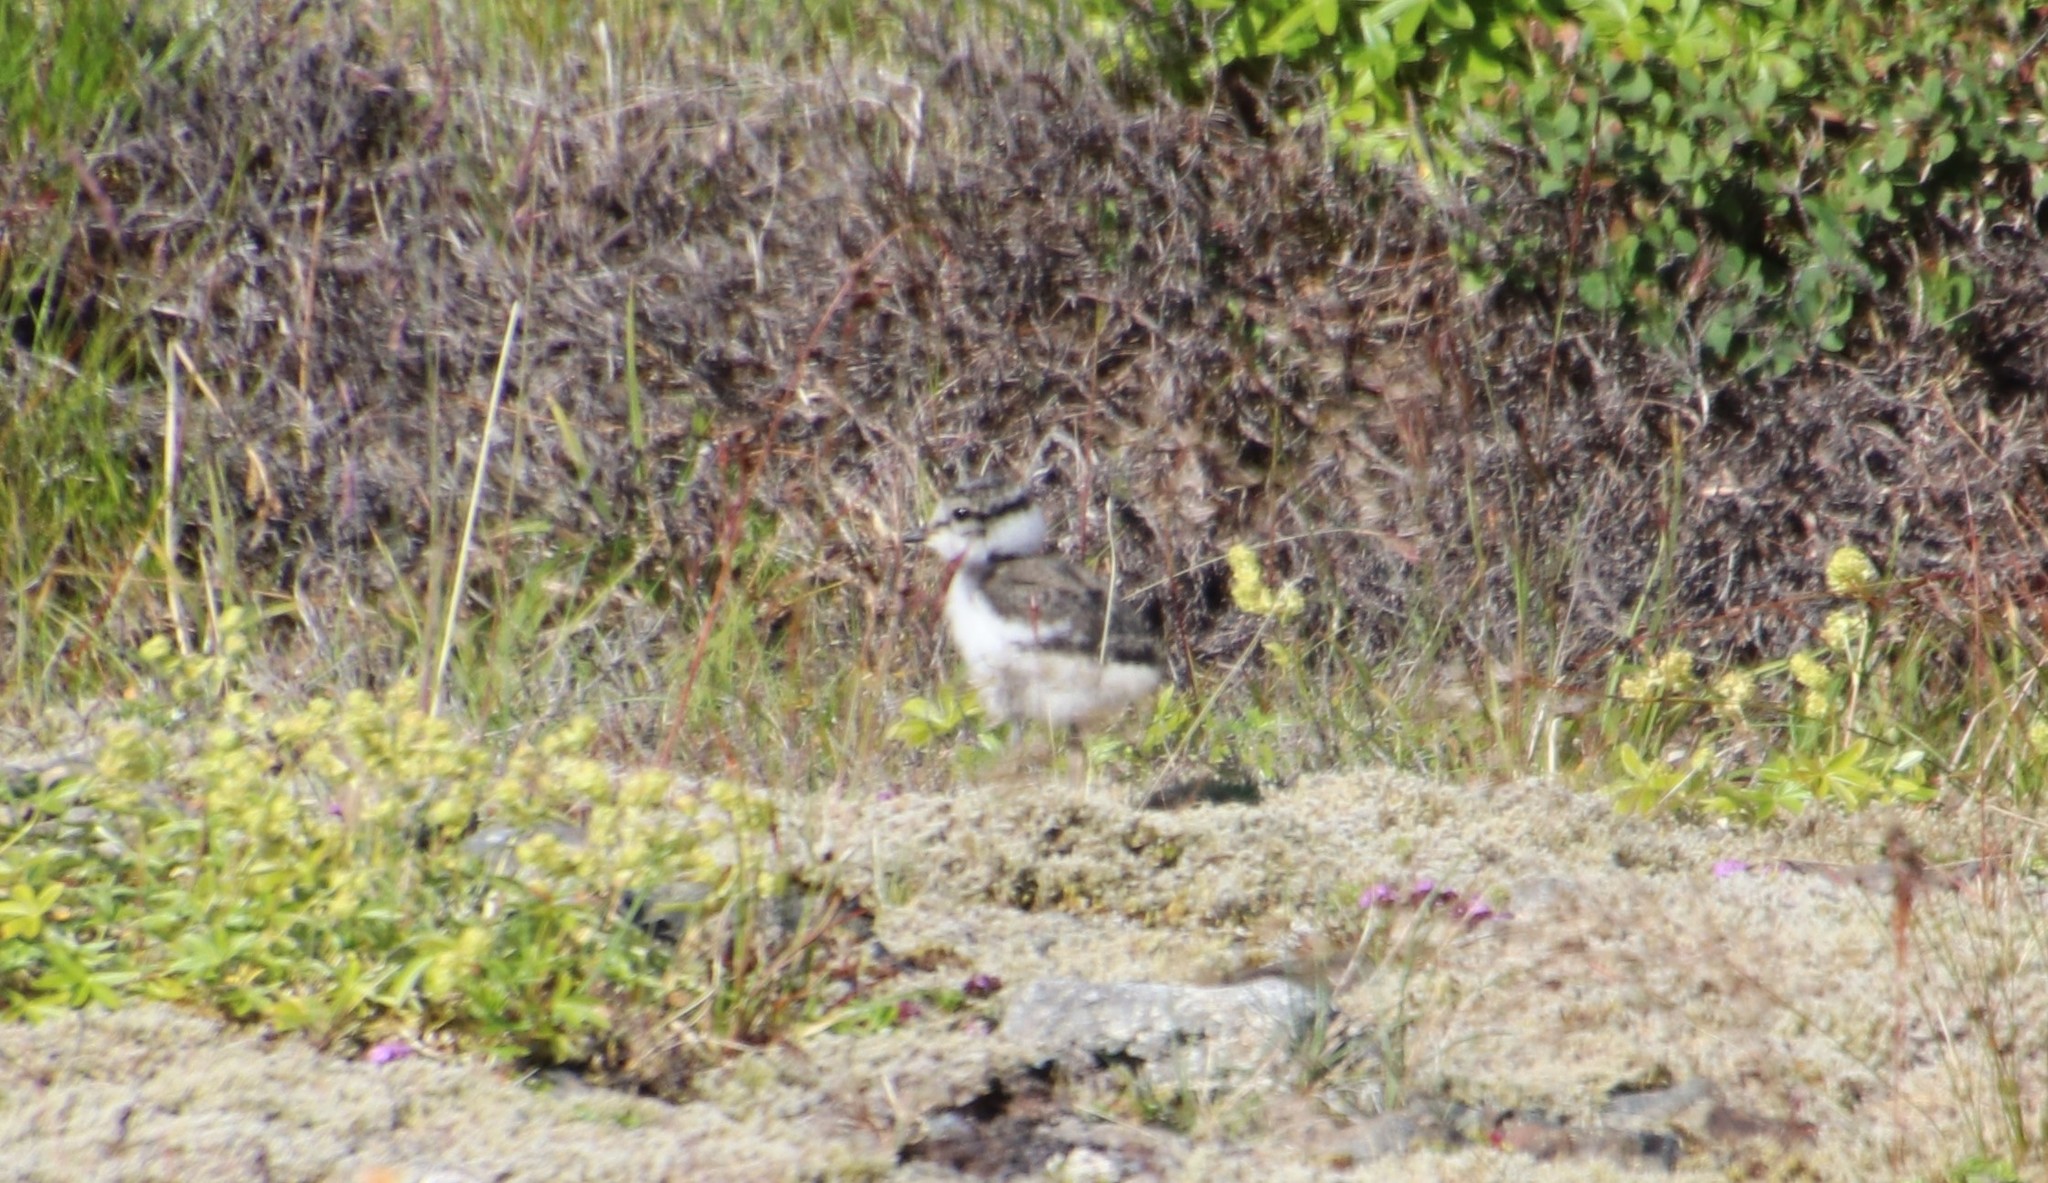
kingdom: Animalia
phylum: Chordata
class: Aves
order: Charadriiformes
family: Charadriidae
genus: Charadrius
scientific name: Charadrius hiaticula
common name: Common ringed plover
